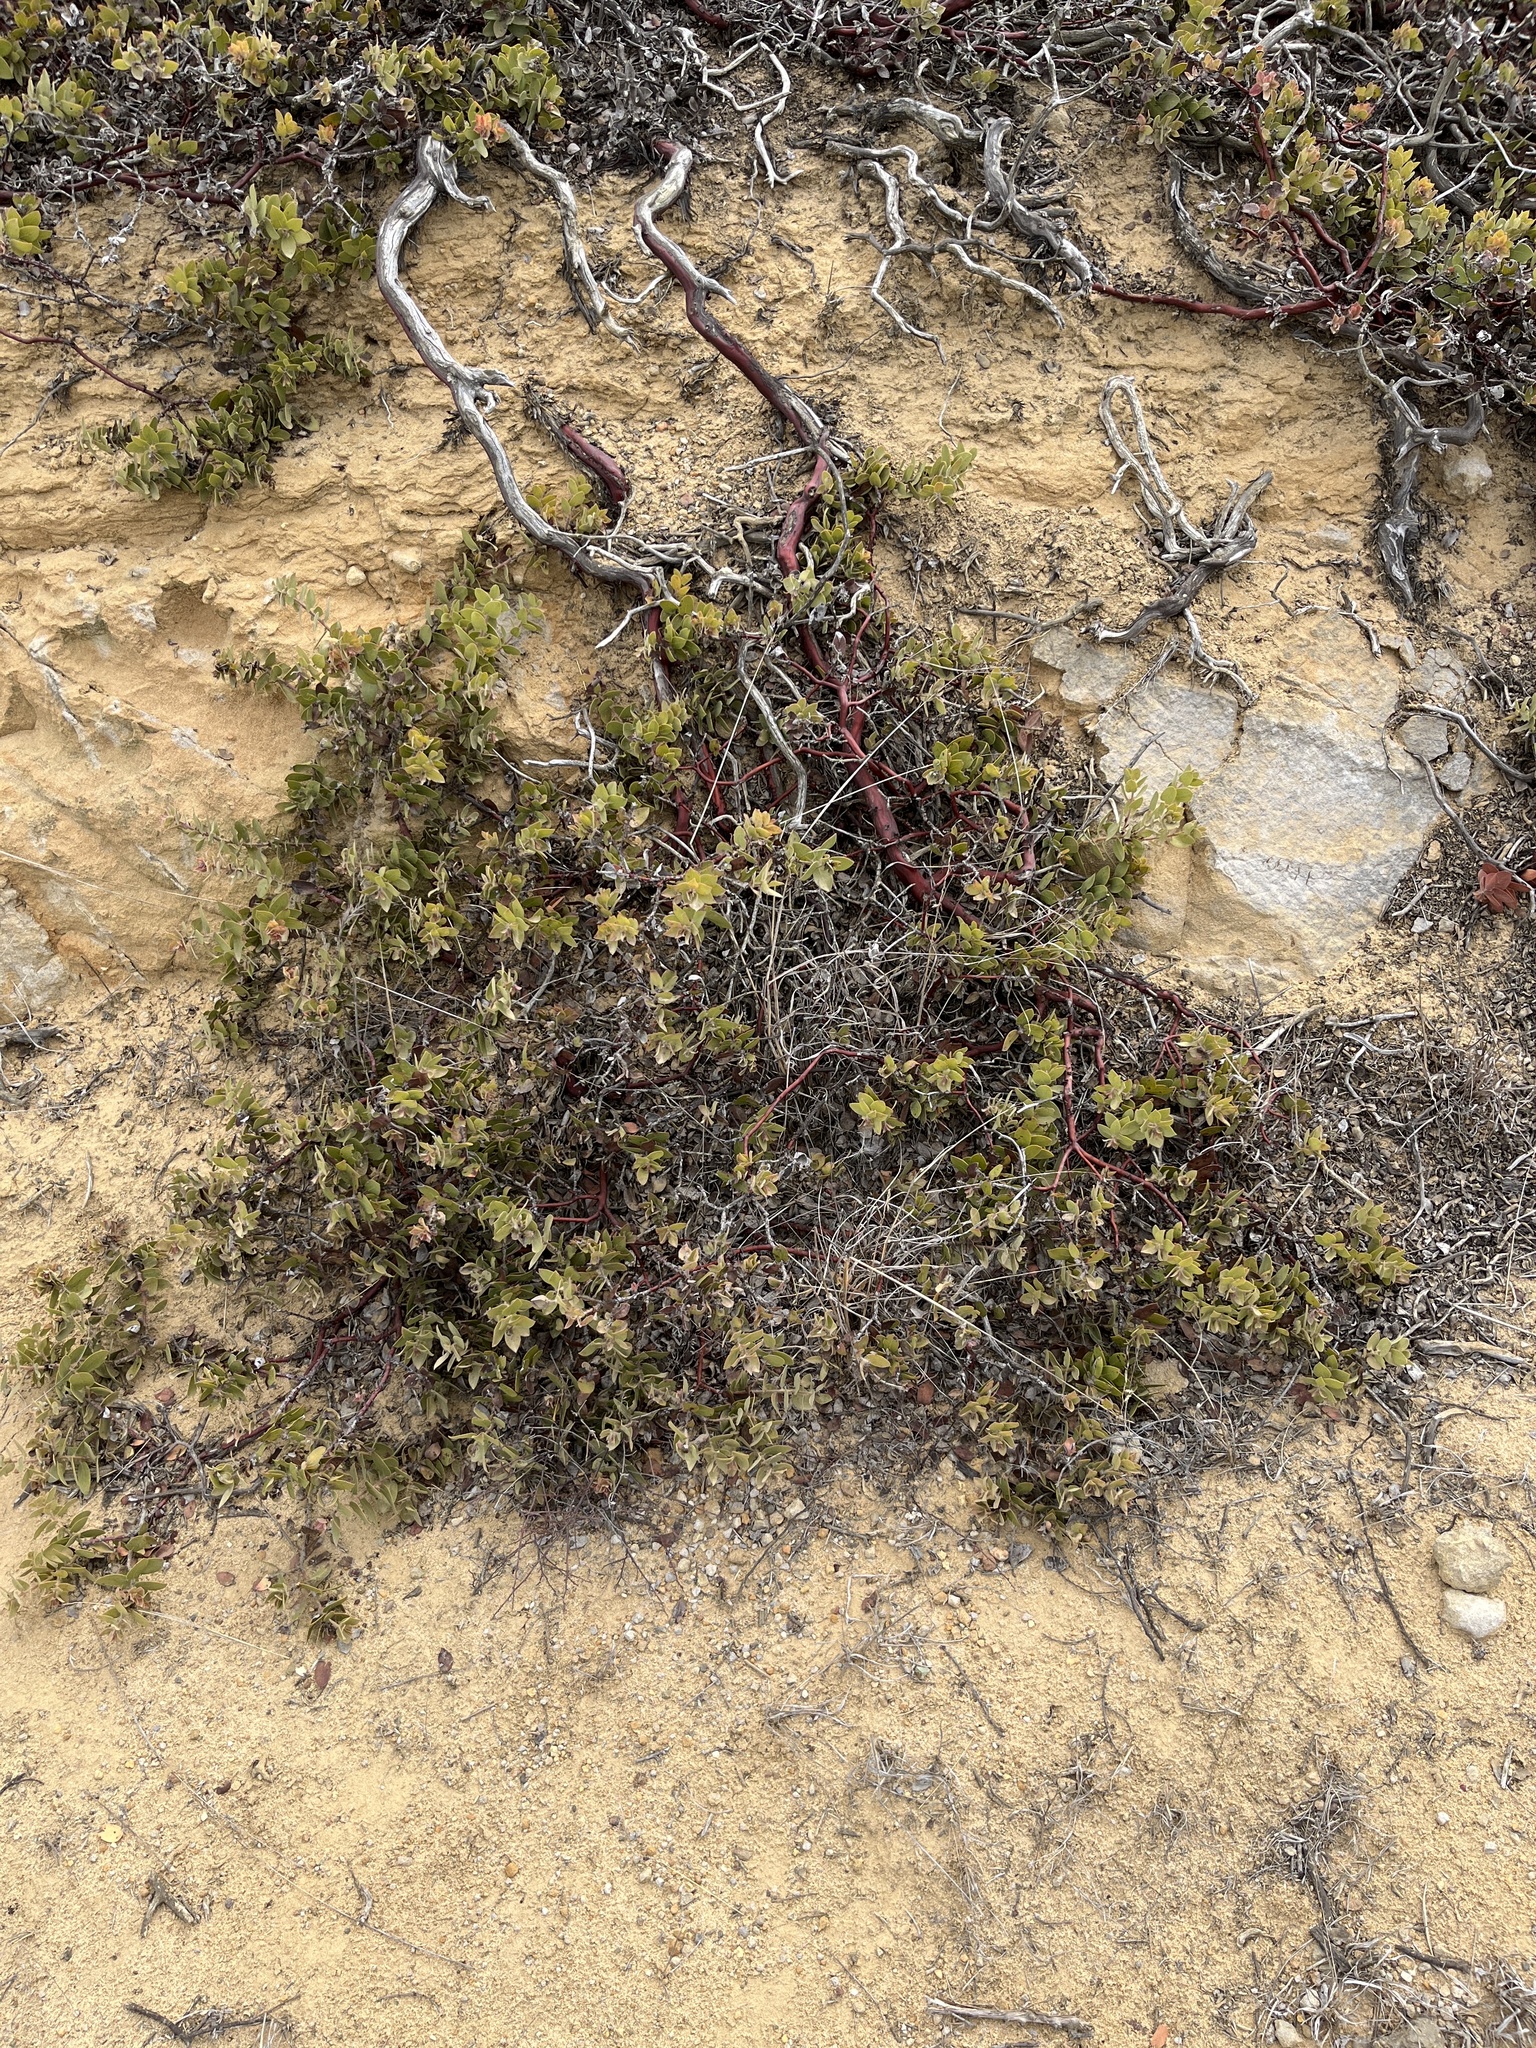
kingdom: Plantae
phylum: Tracheophyta
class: Magnoliopsida
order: Ericales
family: Ericaceae
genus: Arctostaphylos
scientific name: Arctostaphylos purissima
